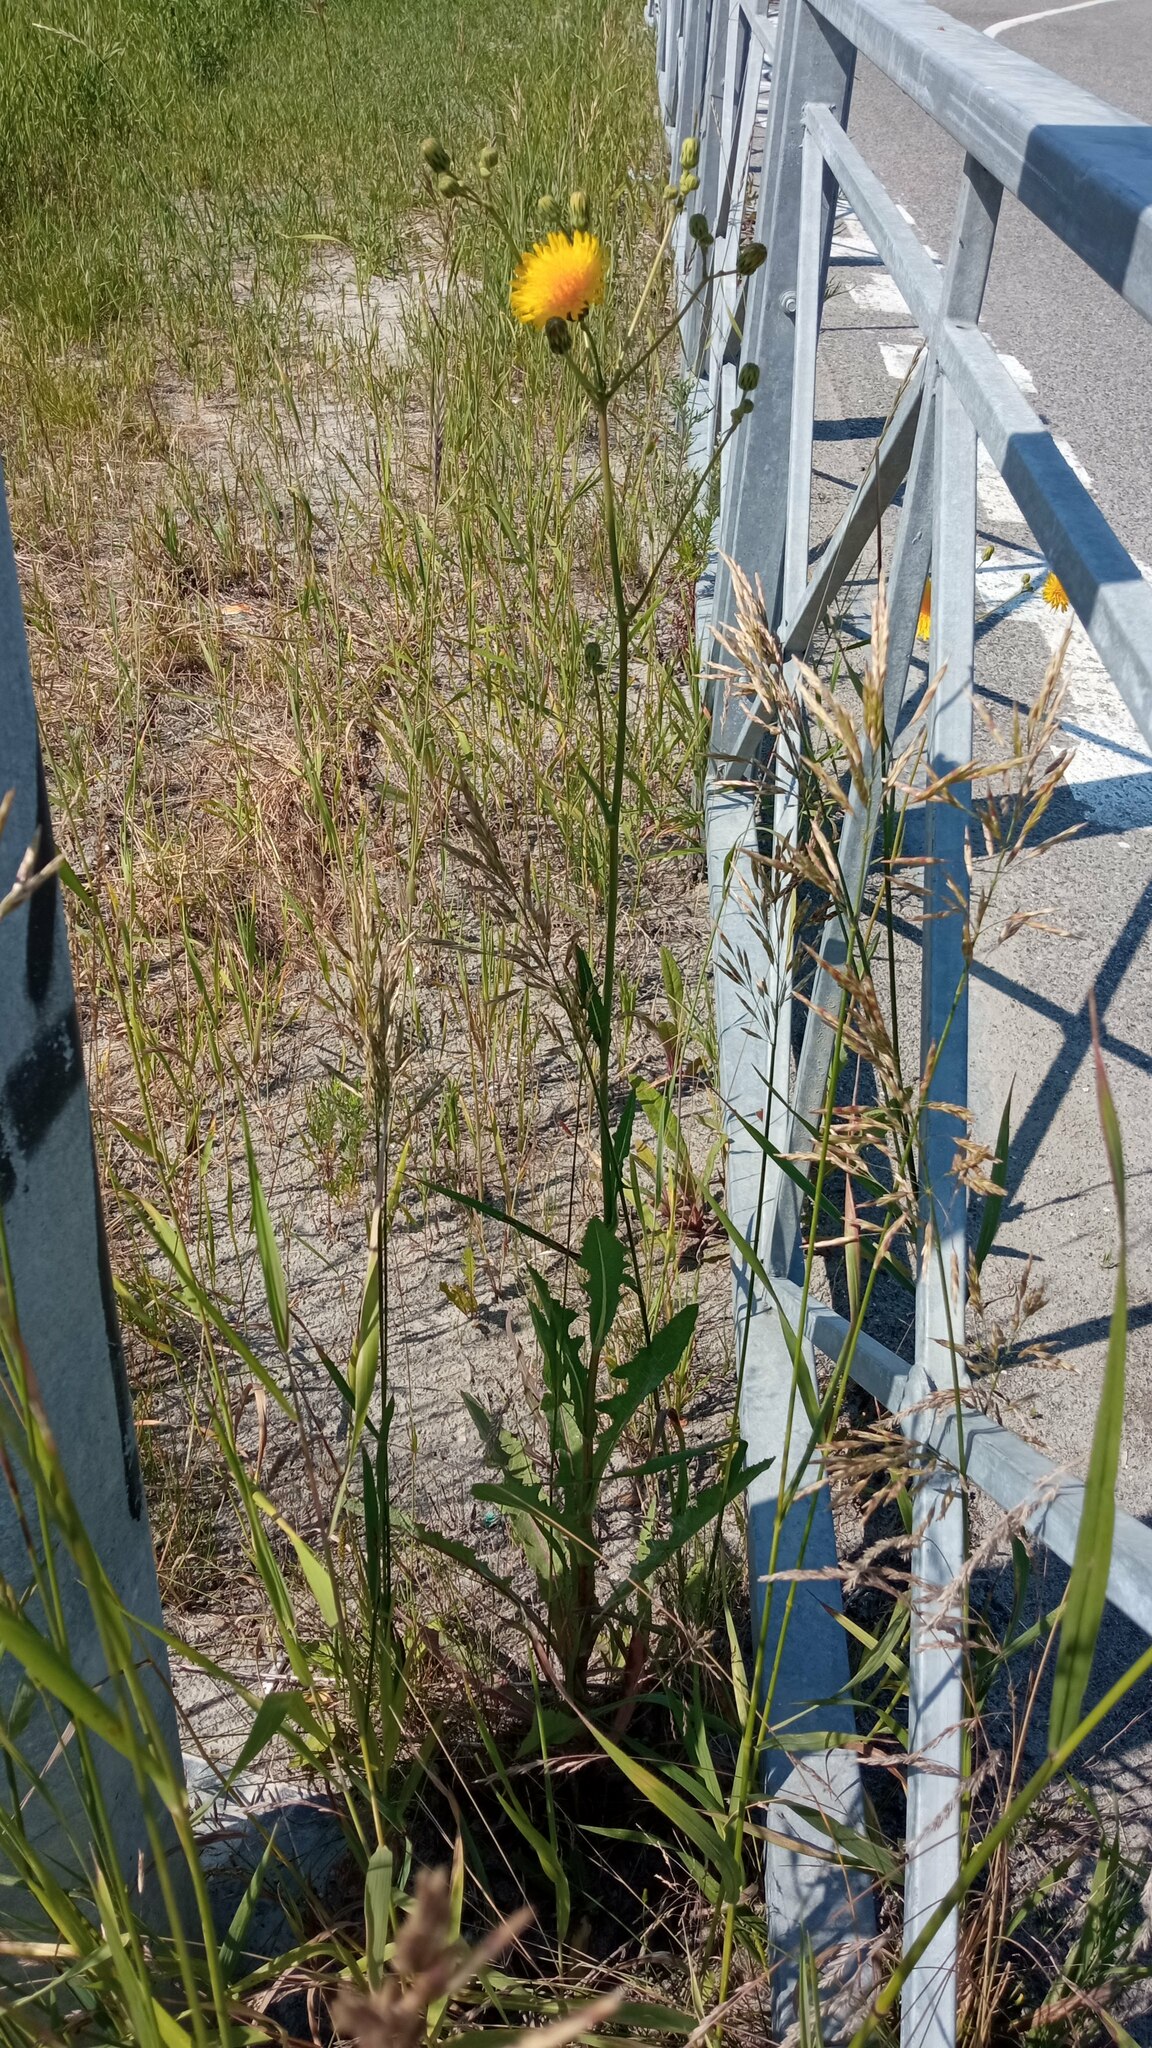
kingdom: Plantae
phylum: Tracheophyta
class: Magnoliopsida
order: Asterales
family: Asteraceae
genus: Sonchus
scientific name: Sonchus arvensis
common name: Perennial sow-thistle
